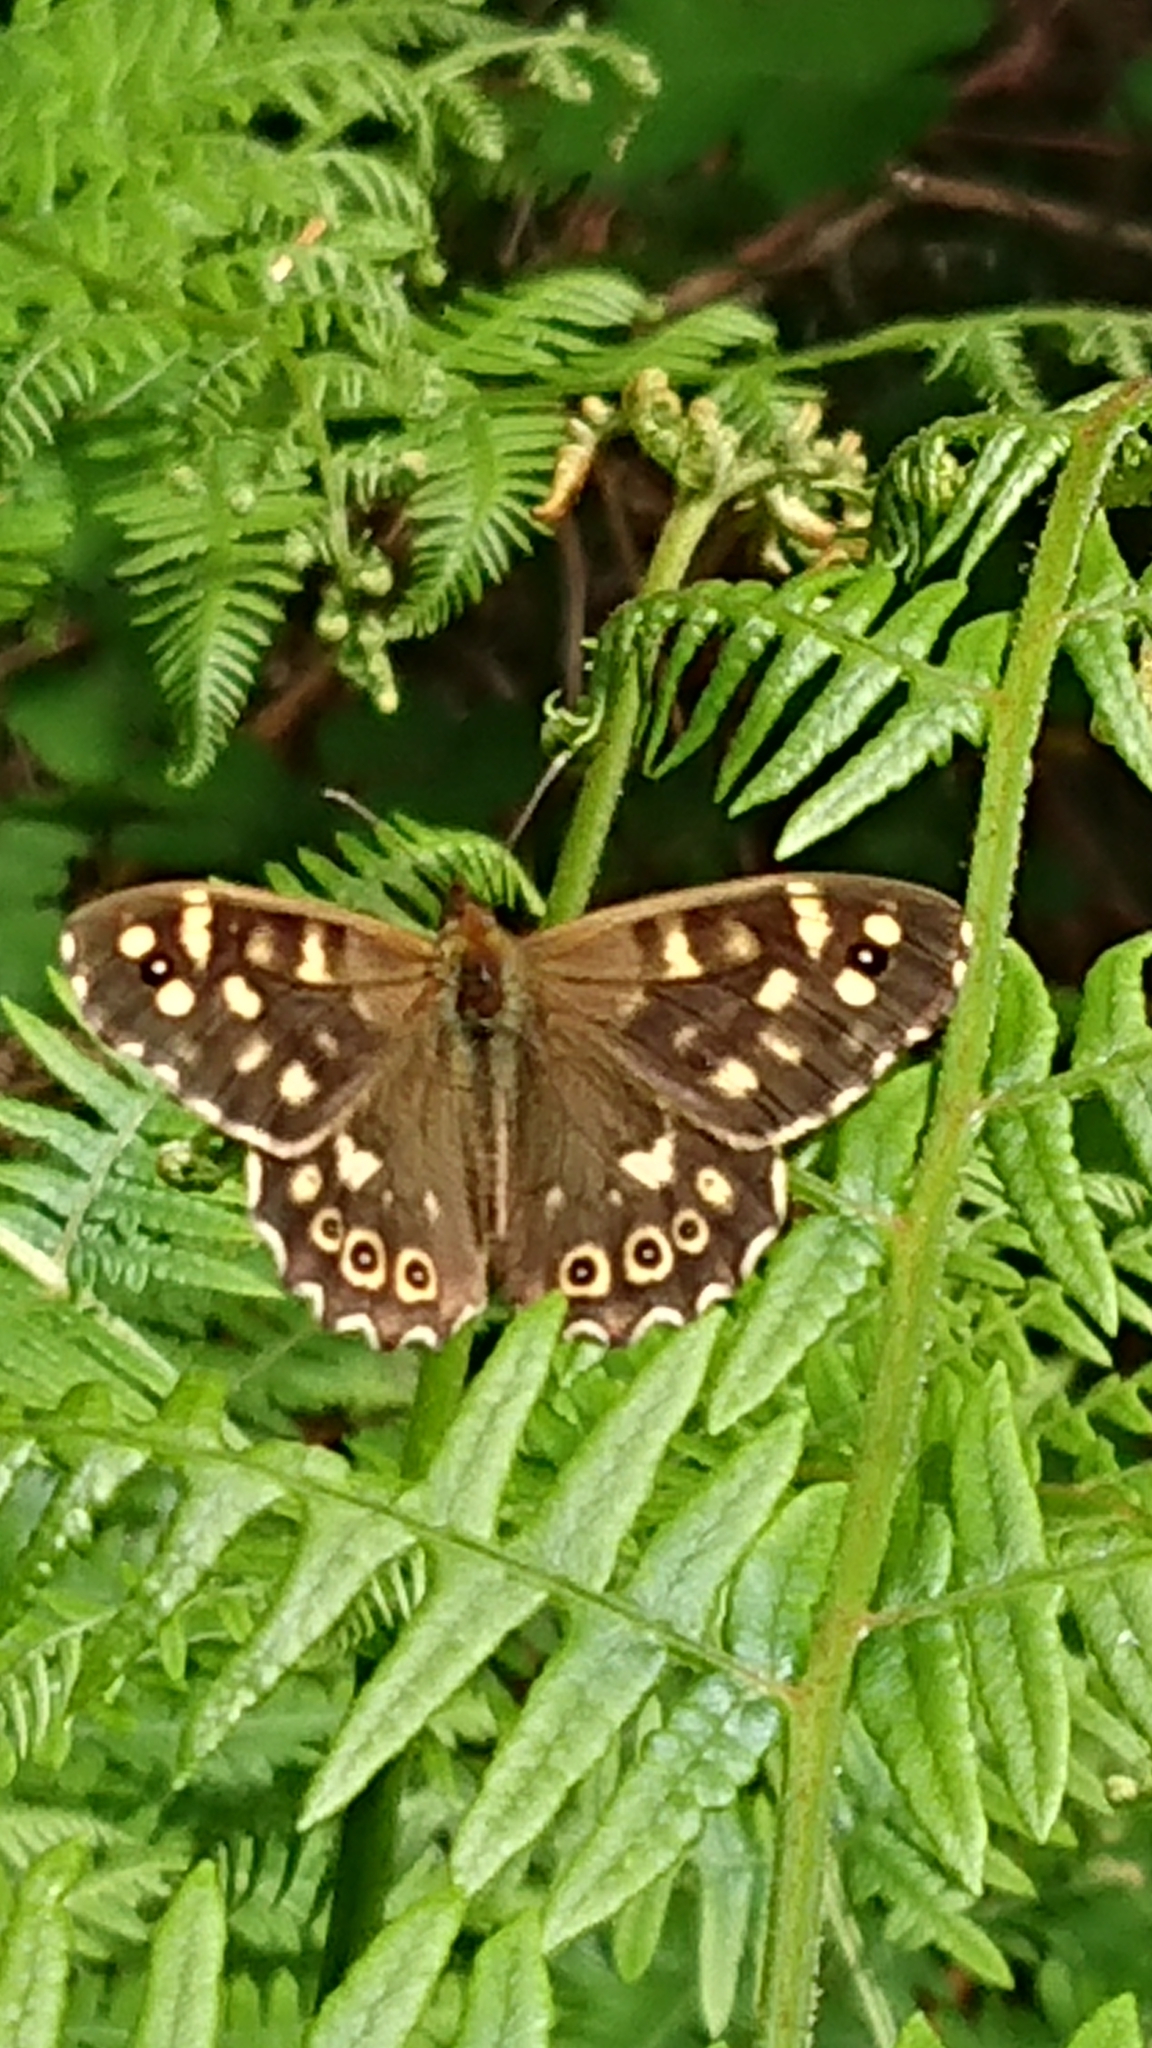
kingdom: Animalia
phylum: Arthropoda
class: Insecta
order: Lepidoptera
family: Nymphalidae
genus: Pararge
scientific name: Pararge aegeria
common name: Speckled wood
